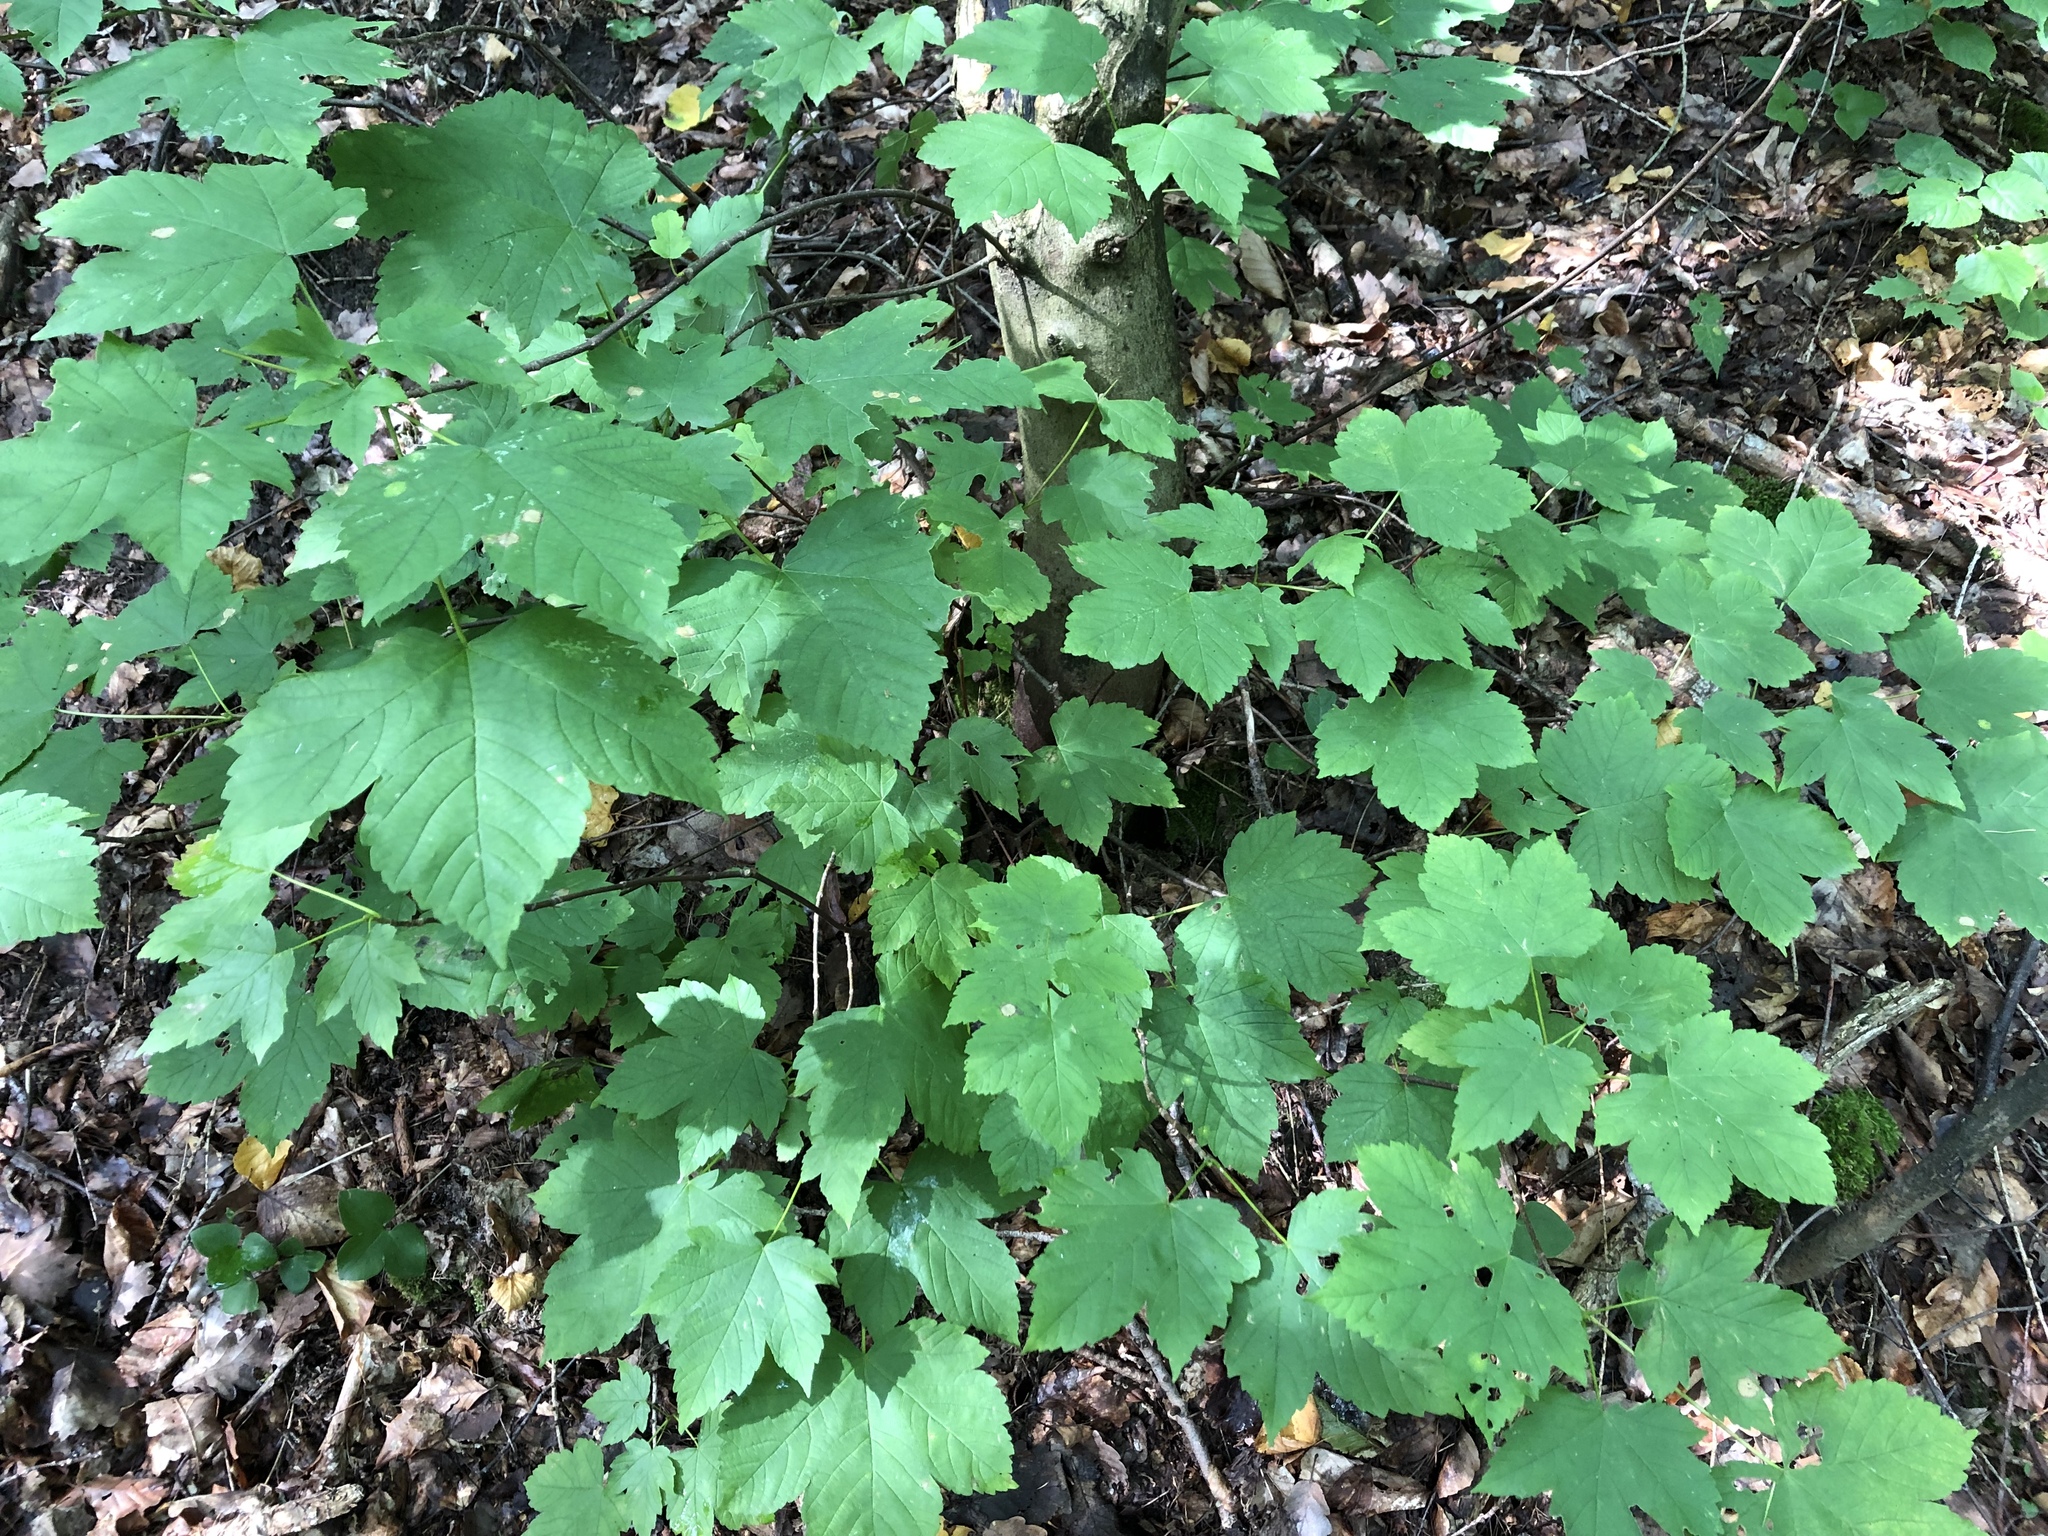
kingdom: Plantae
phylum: Tracheophyta
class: Magnoliopsida
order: Sapindales
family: Sapindaceae
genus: Acer
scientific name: Acer pseudoplatanus
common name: Sycamore
